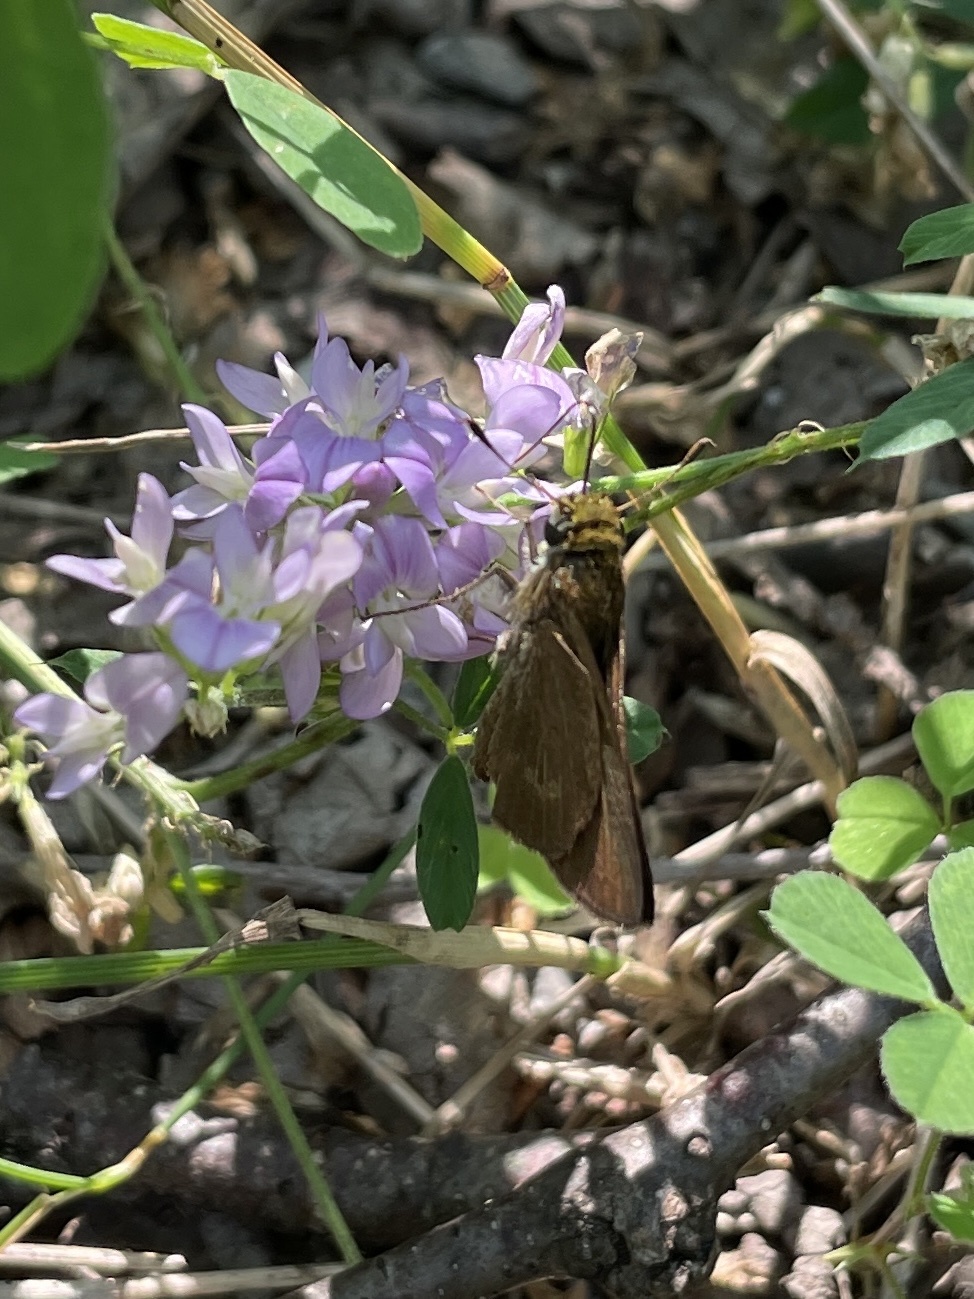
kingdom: Animalia
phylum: Arthropoda
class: Insecta
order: Lepidoptera
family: Hesperiidae
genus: Euphyes
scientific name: Euphyes vestris
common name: Dun skipper
